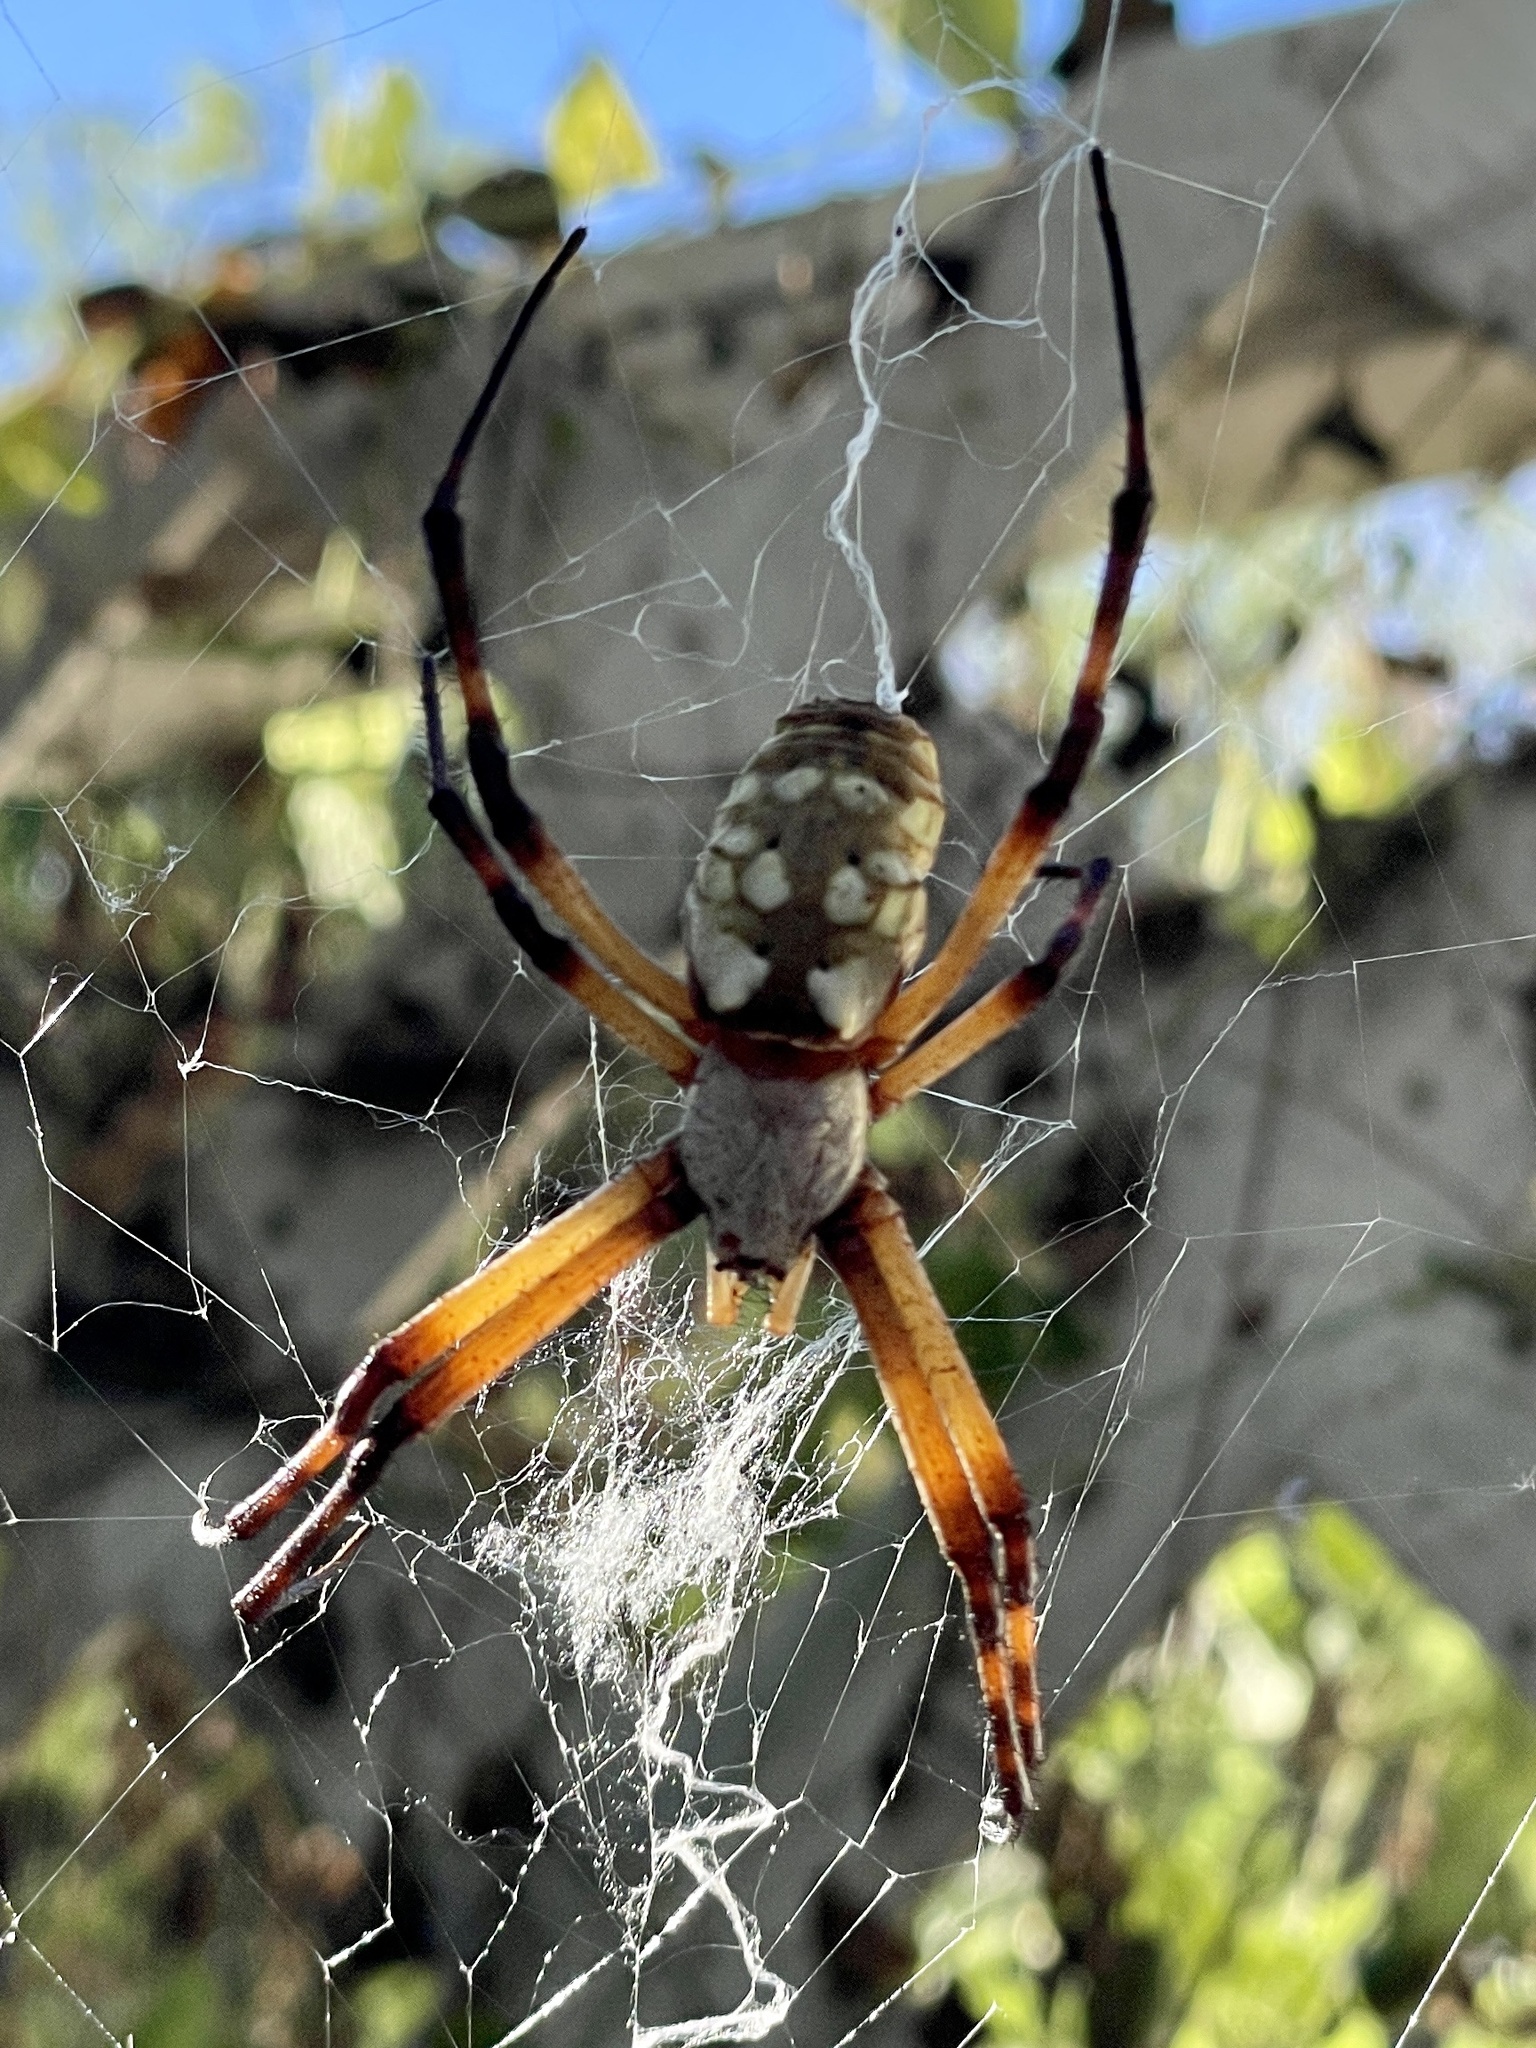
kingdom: Animalia
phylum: Arthropoda
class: Arachnida
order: Araneae
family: Araneidae
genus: Argiope
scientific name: Argiope aurantia
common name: Orb weavers
